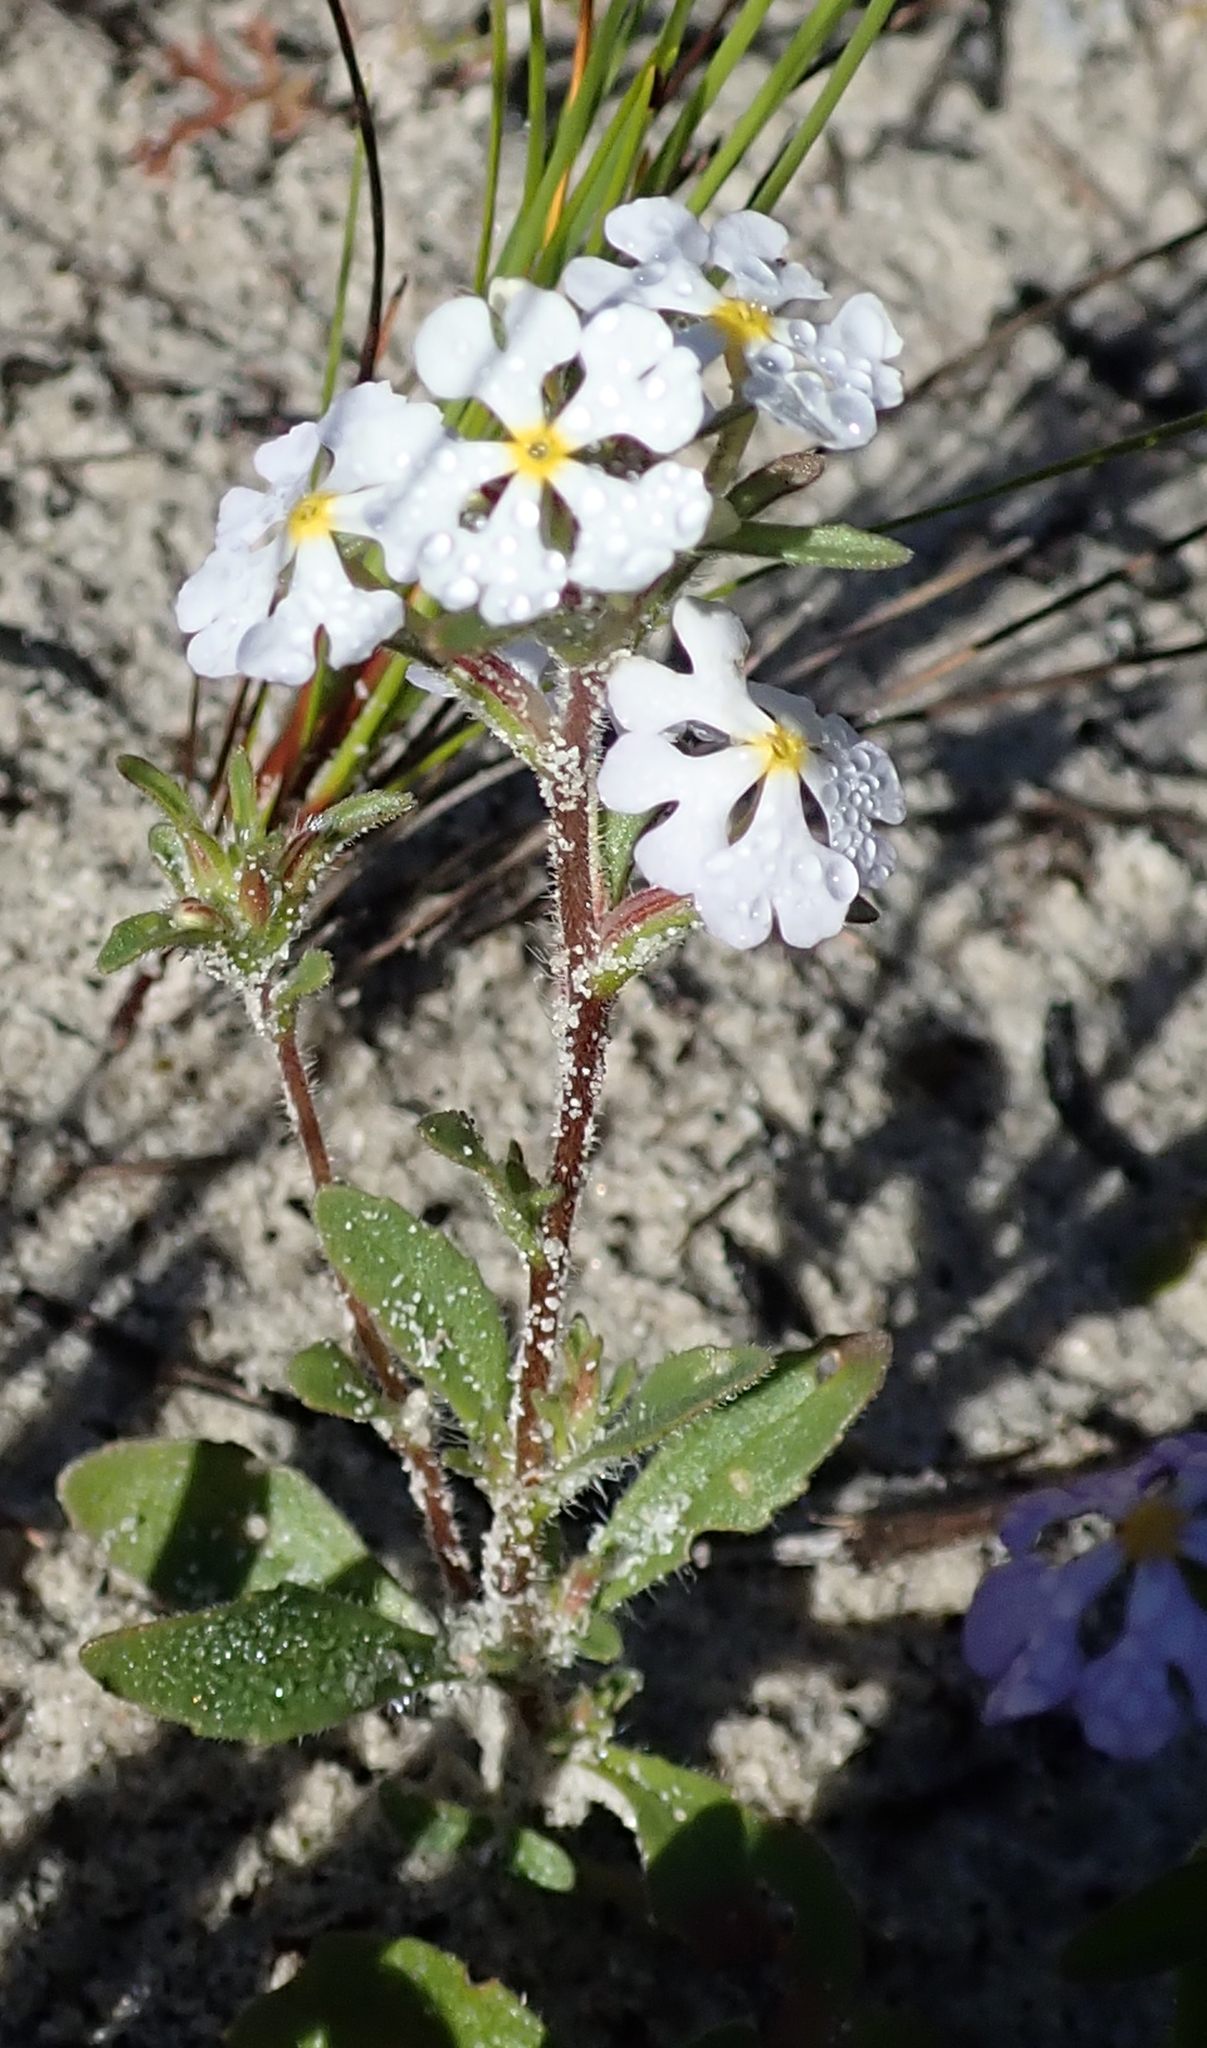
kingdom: Plantae
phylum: Tracheophyta
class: Magnoliopsida
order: Lamiales
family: Scrophulariaceae
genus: Zaluzianskya
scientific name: Zaluzianskya villosa
